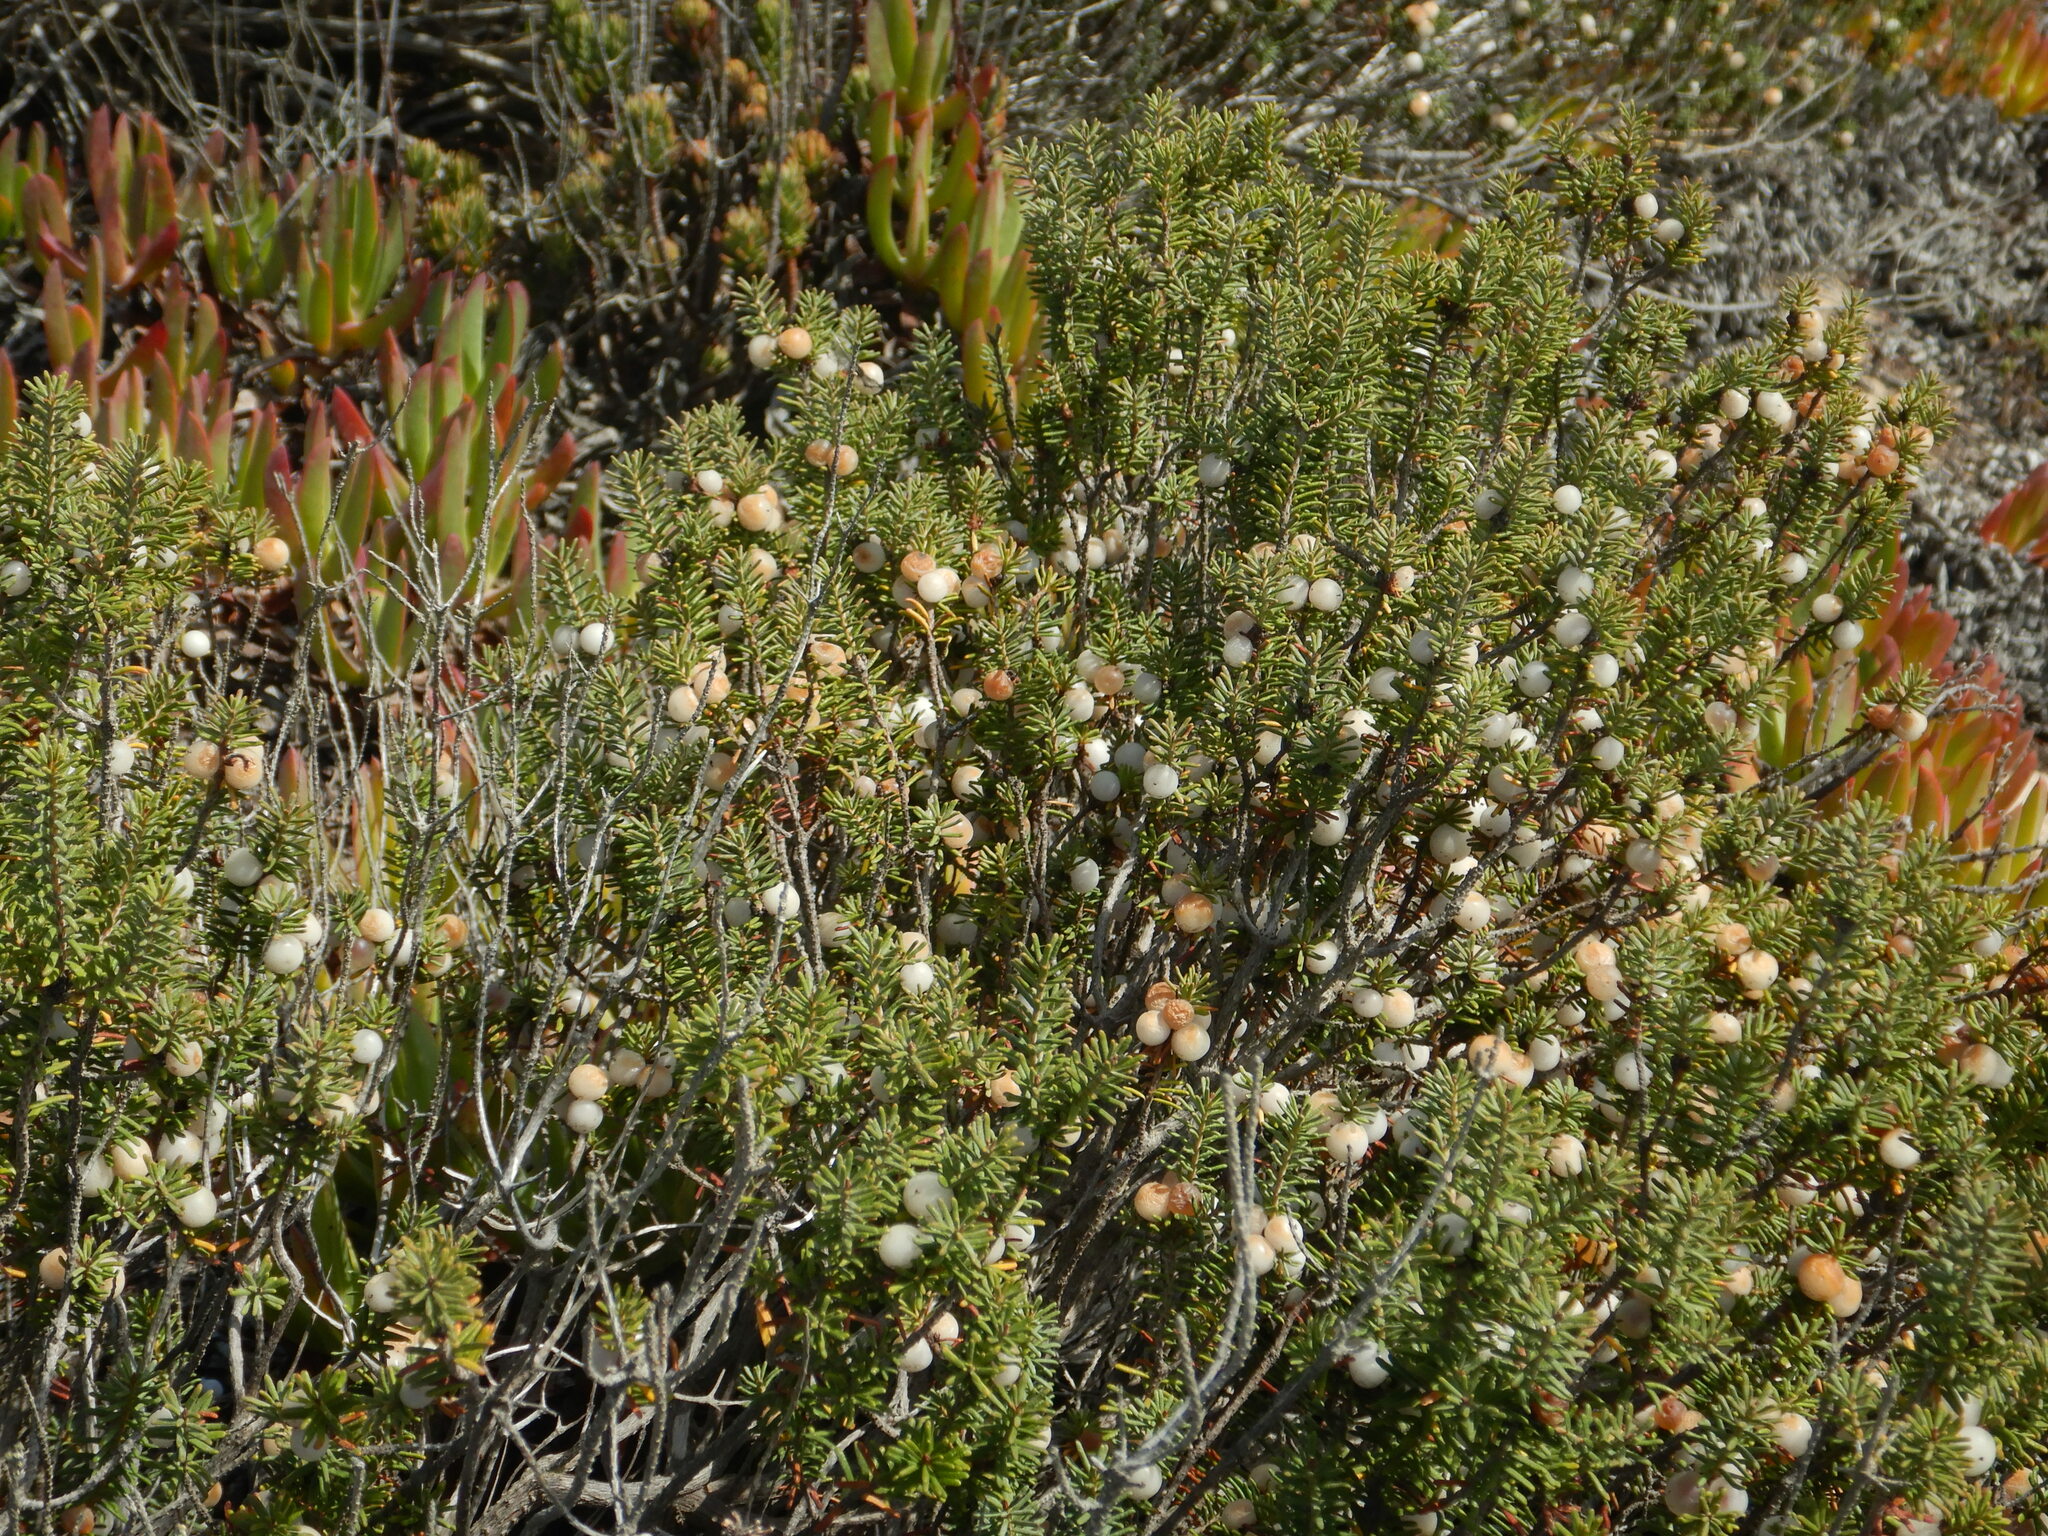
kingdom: Plantae
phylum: Tracheophyta
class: Magnoliopsida
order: Ericales
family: Ericaceae
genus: Corema
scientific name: Corema album
